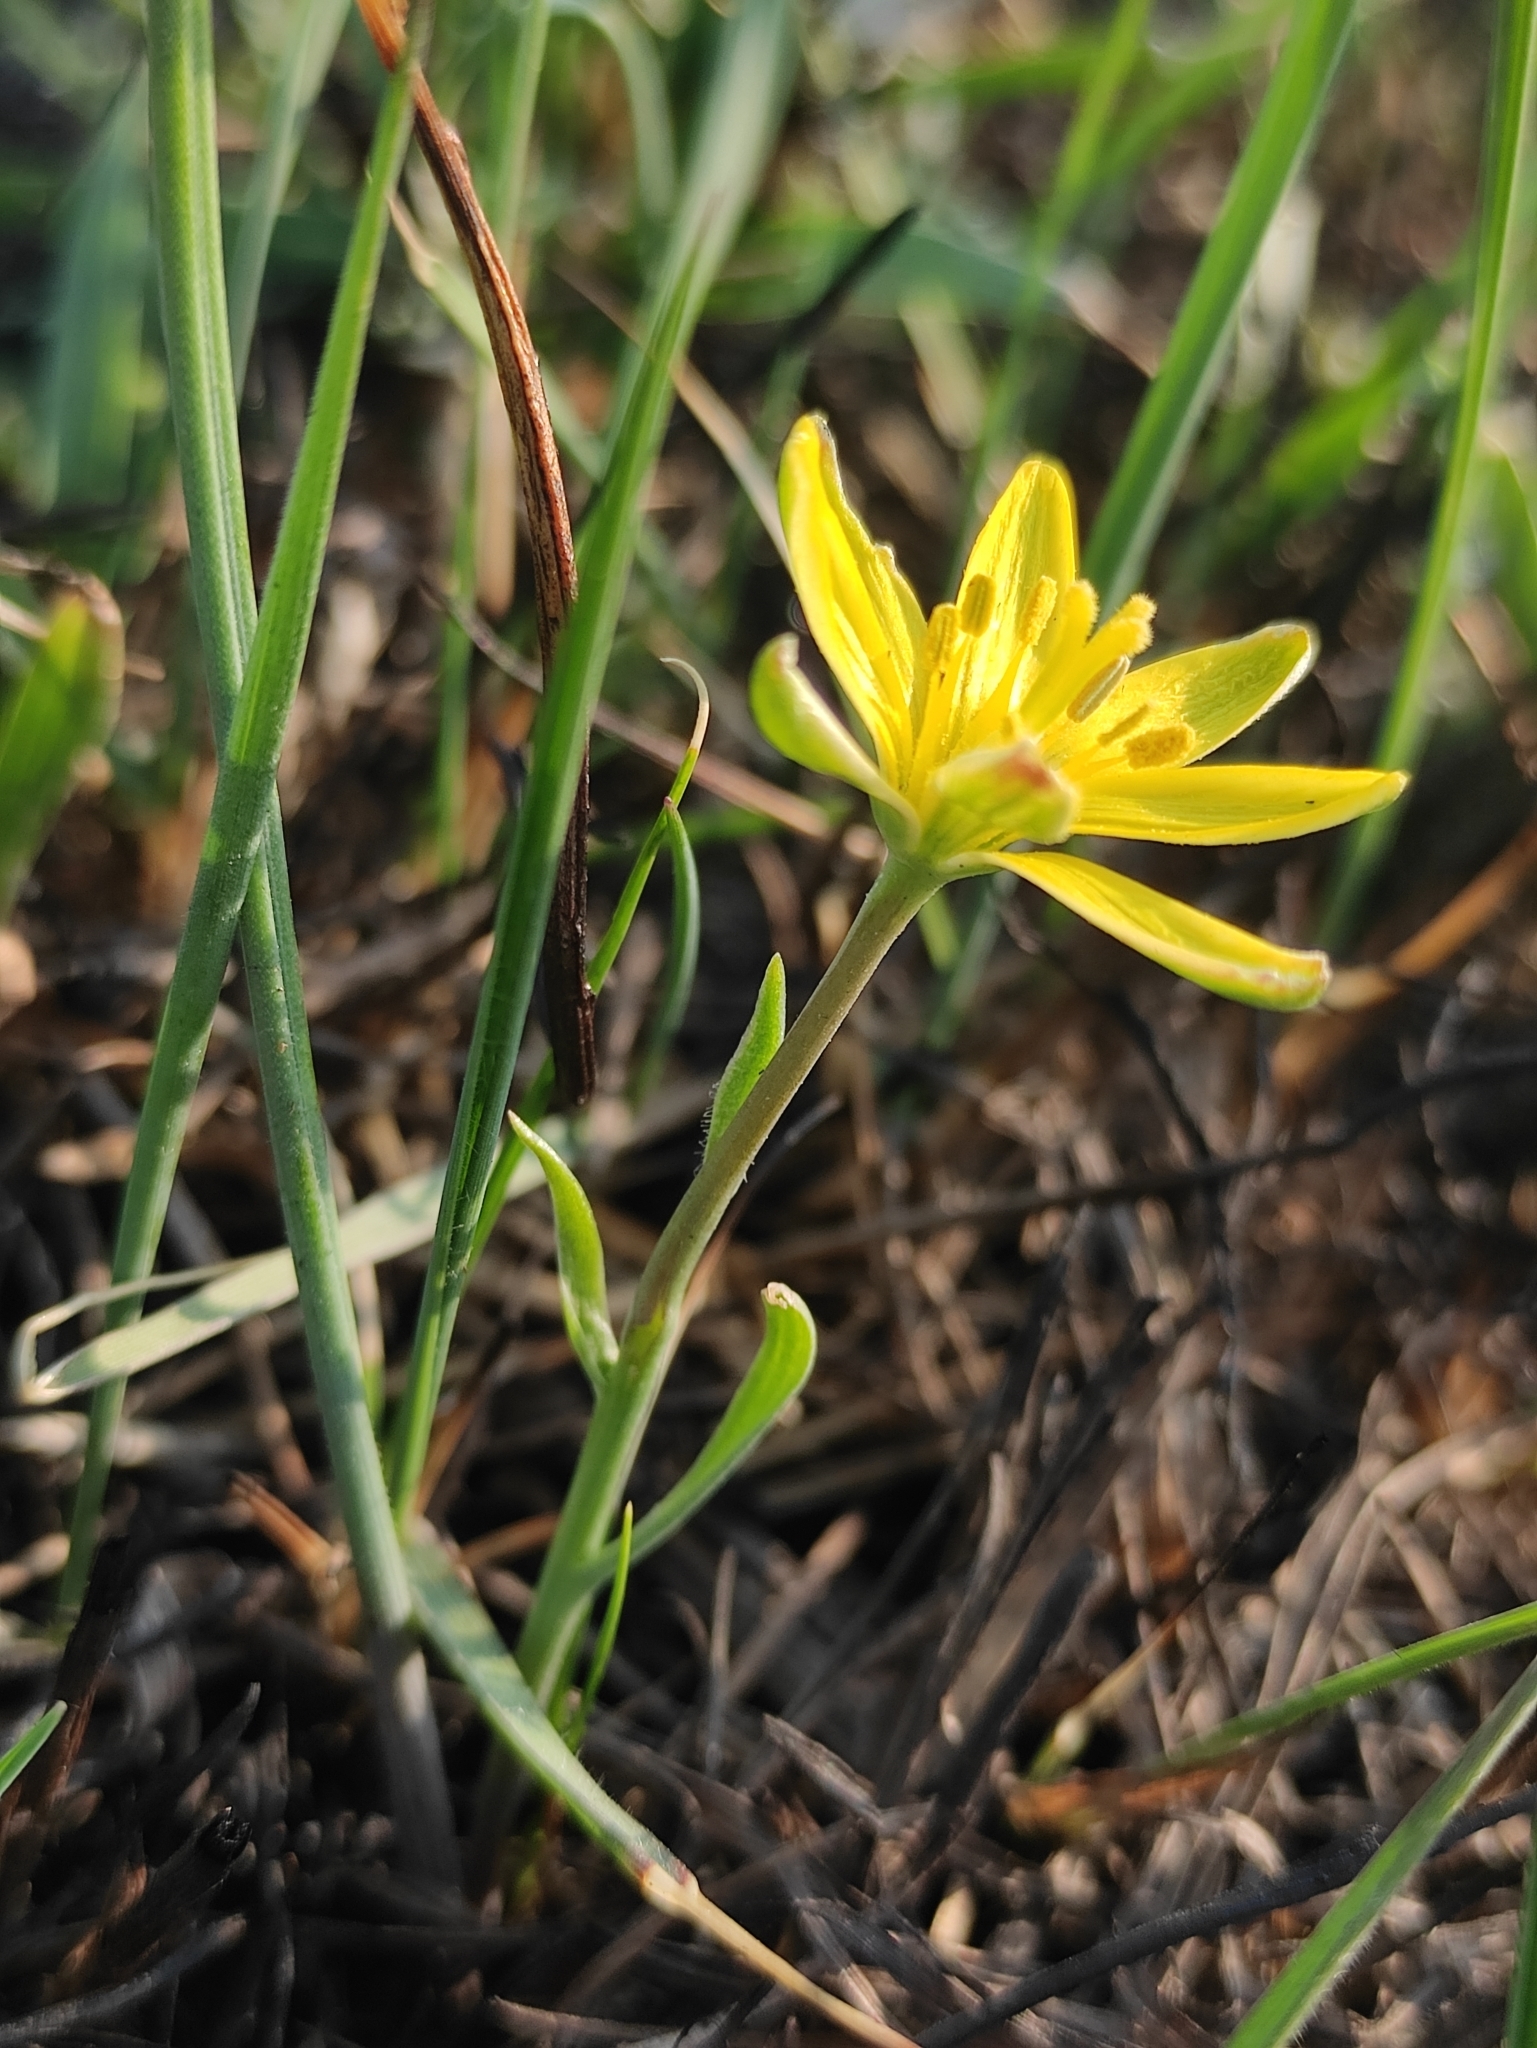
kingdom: Plantae
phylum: Tracheophyta
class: Liliopsida
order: Liliales
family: Liliaceae
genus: Gagea
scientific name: Gagea pauciflora
